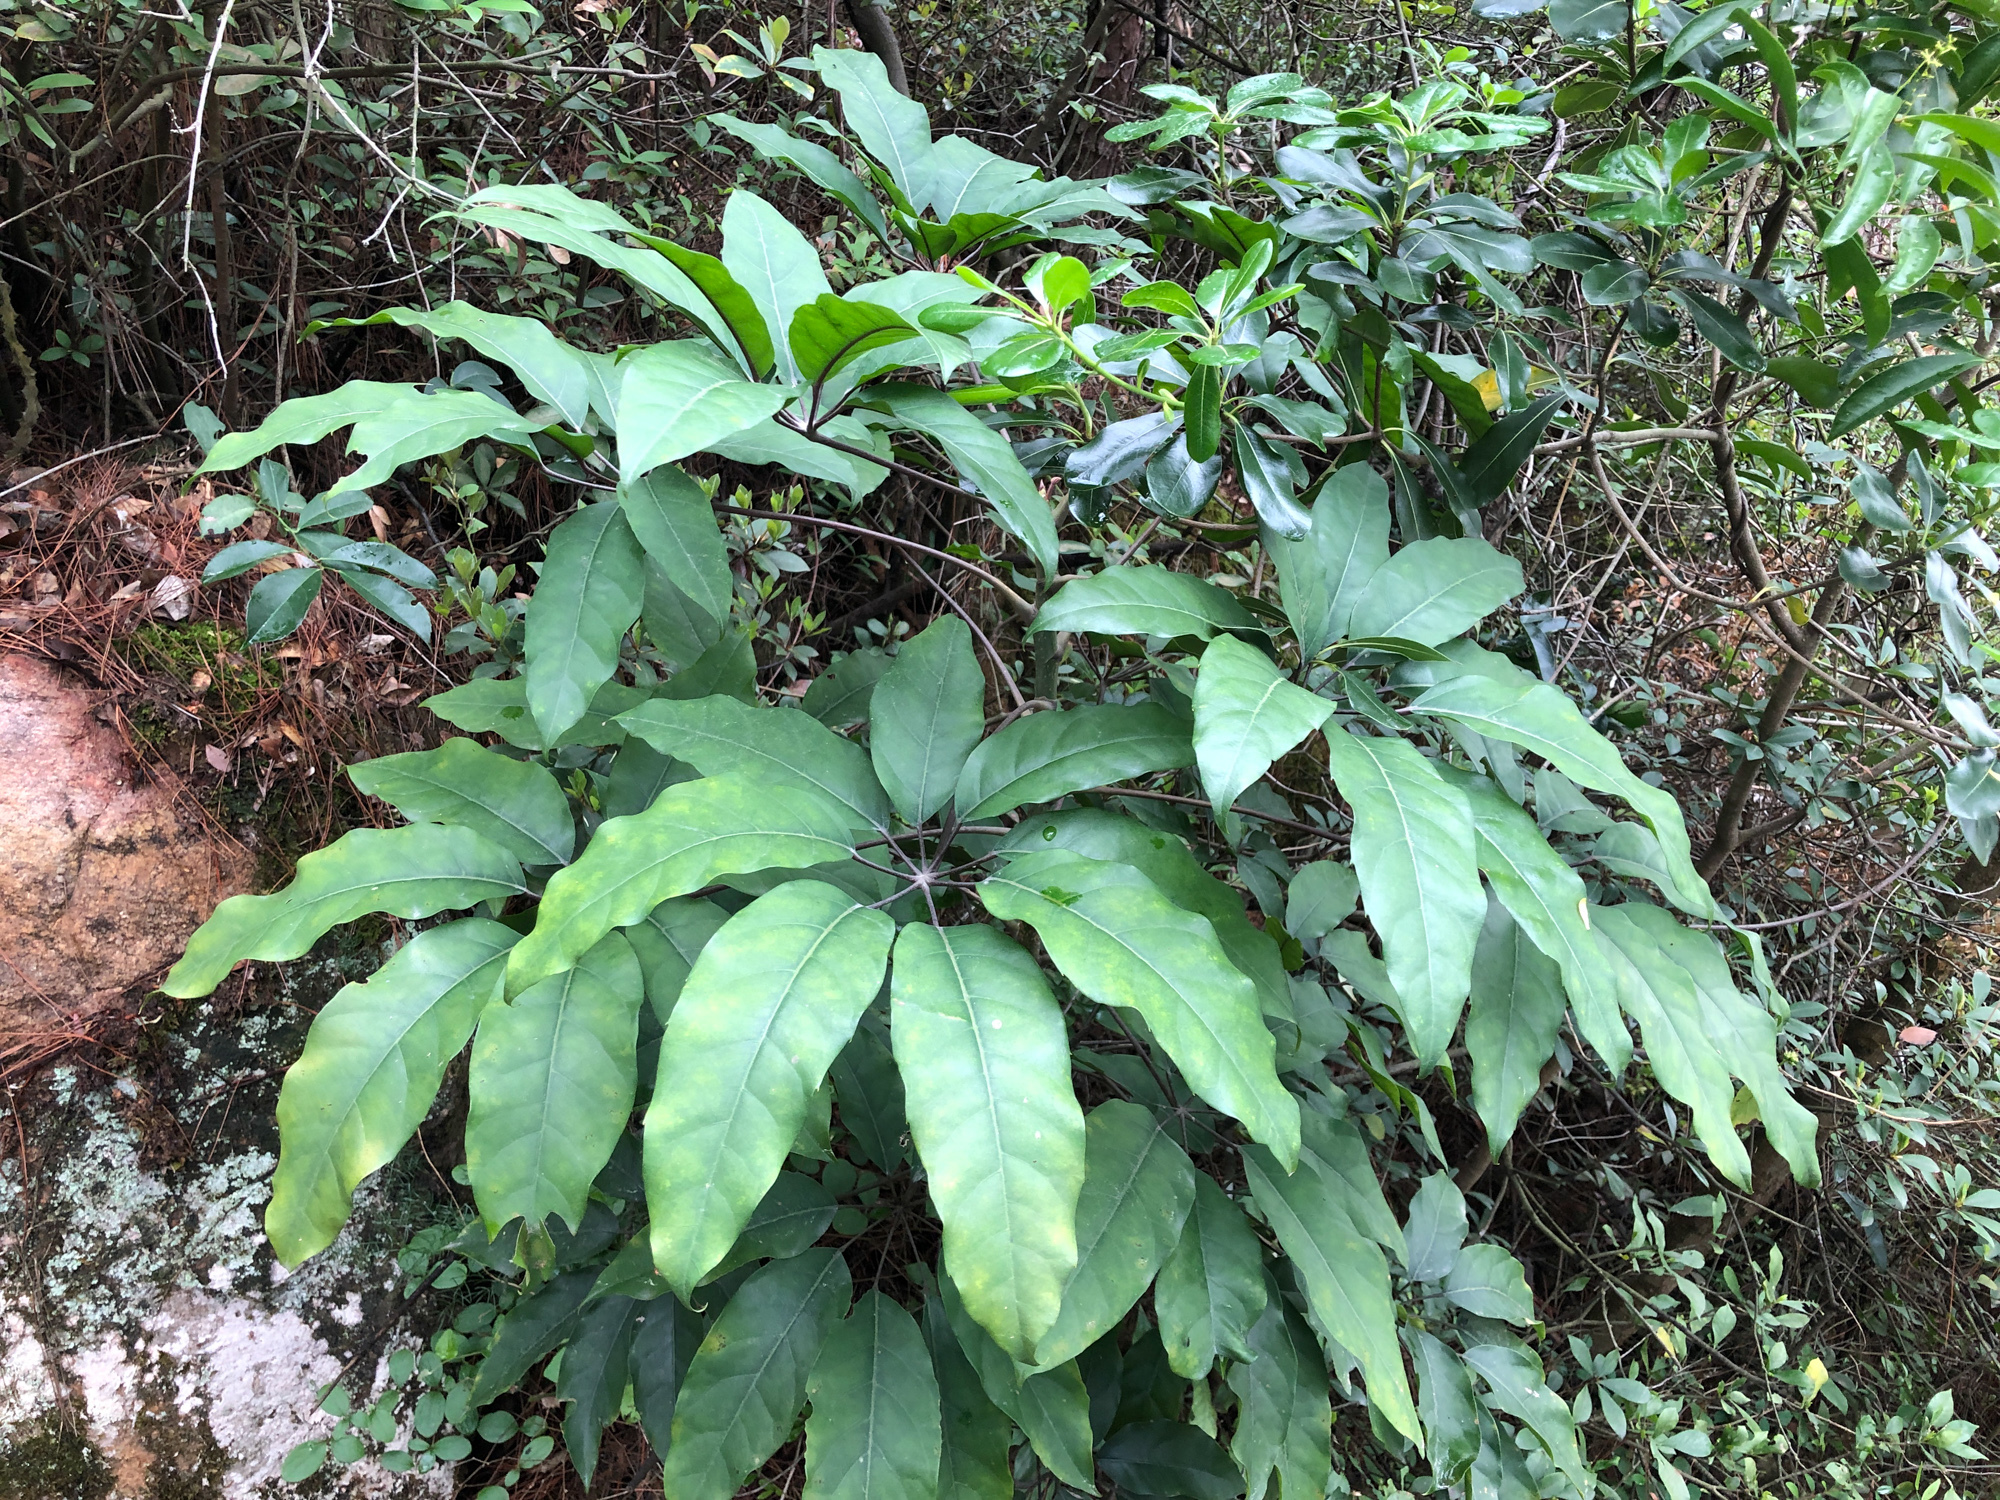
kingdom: Plantae
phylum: Tracheophyta
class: Magnoliopsida
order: Apiales
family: Araliaceae
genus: Heptapleurum
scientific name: Heptapleurum heptaphyllum
